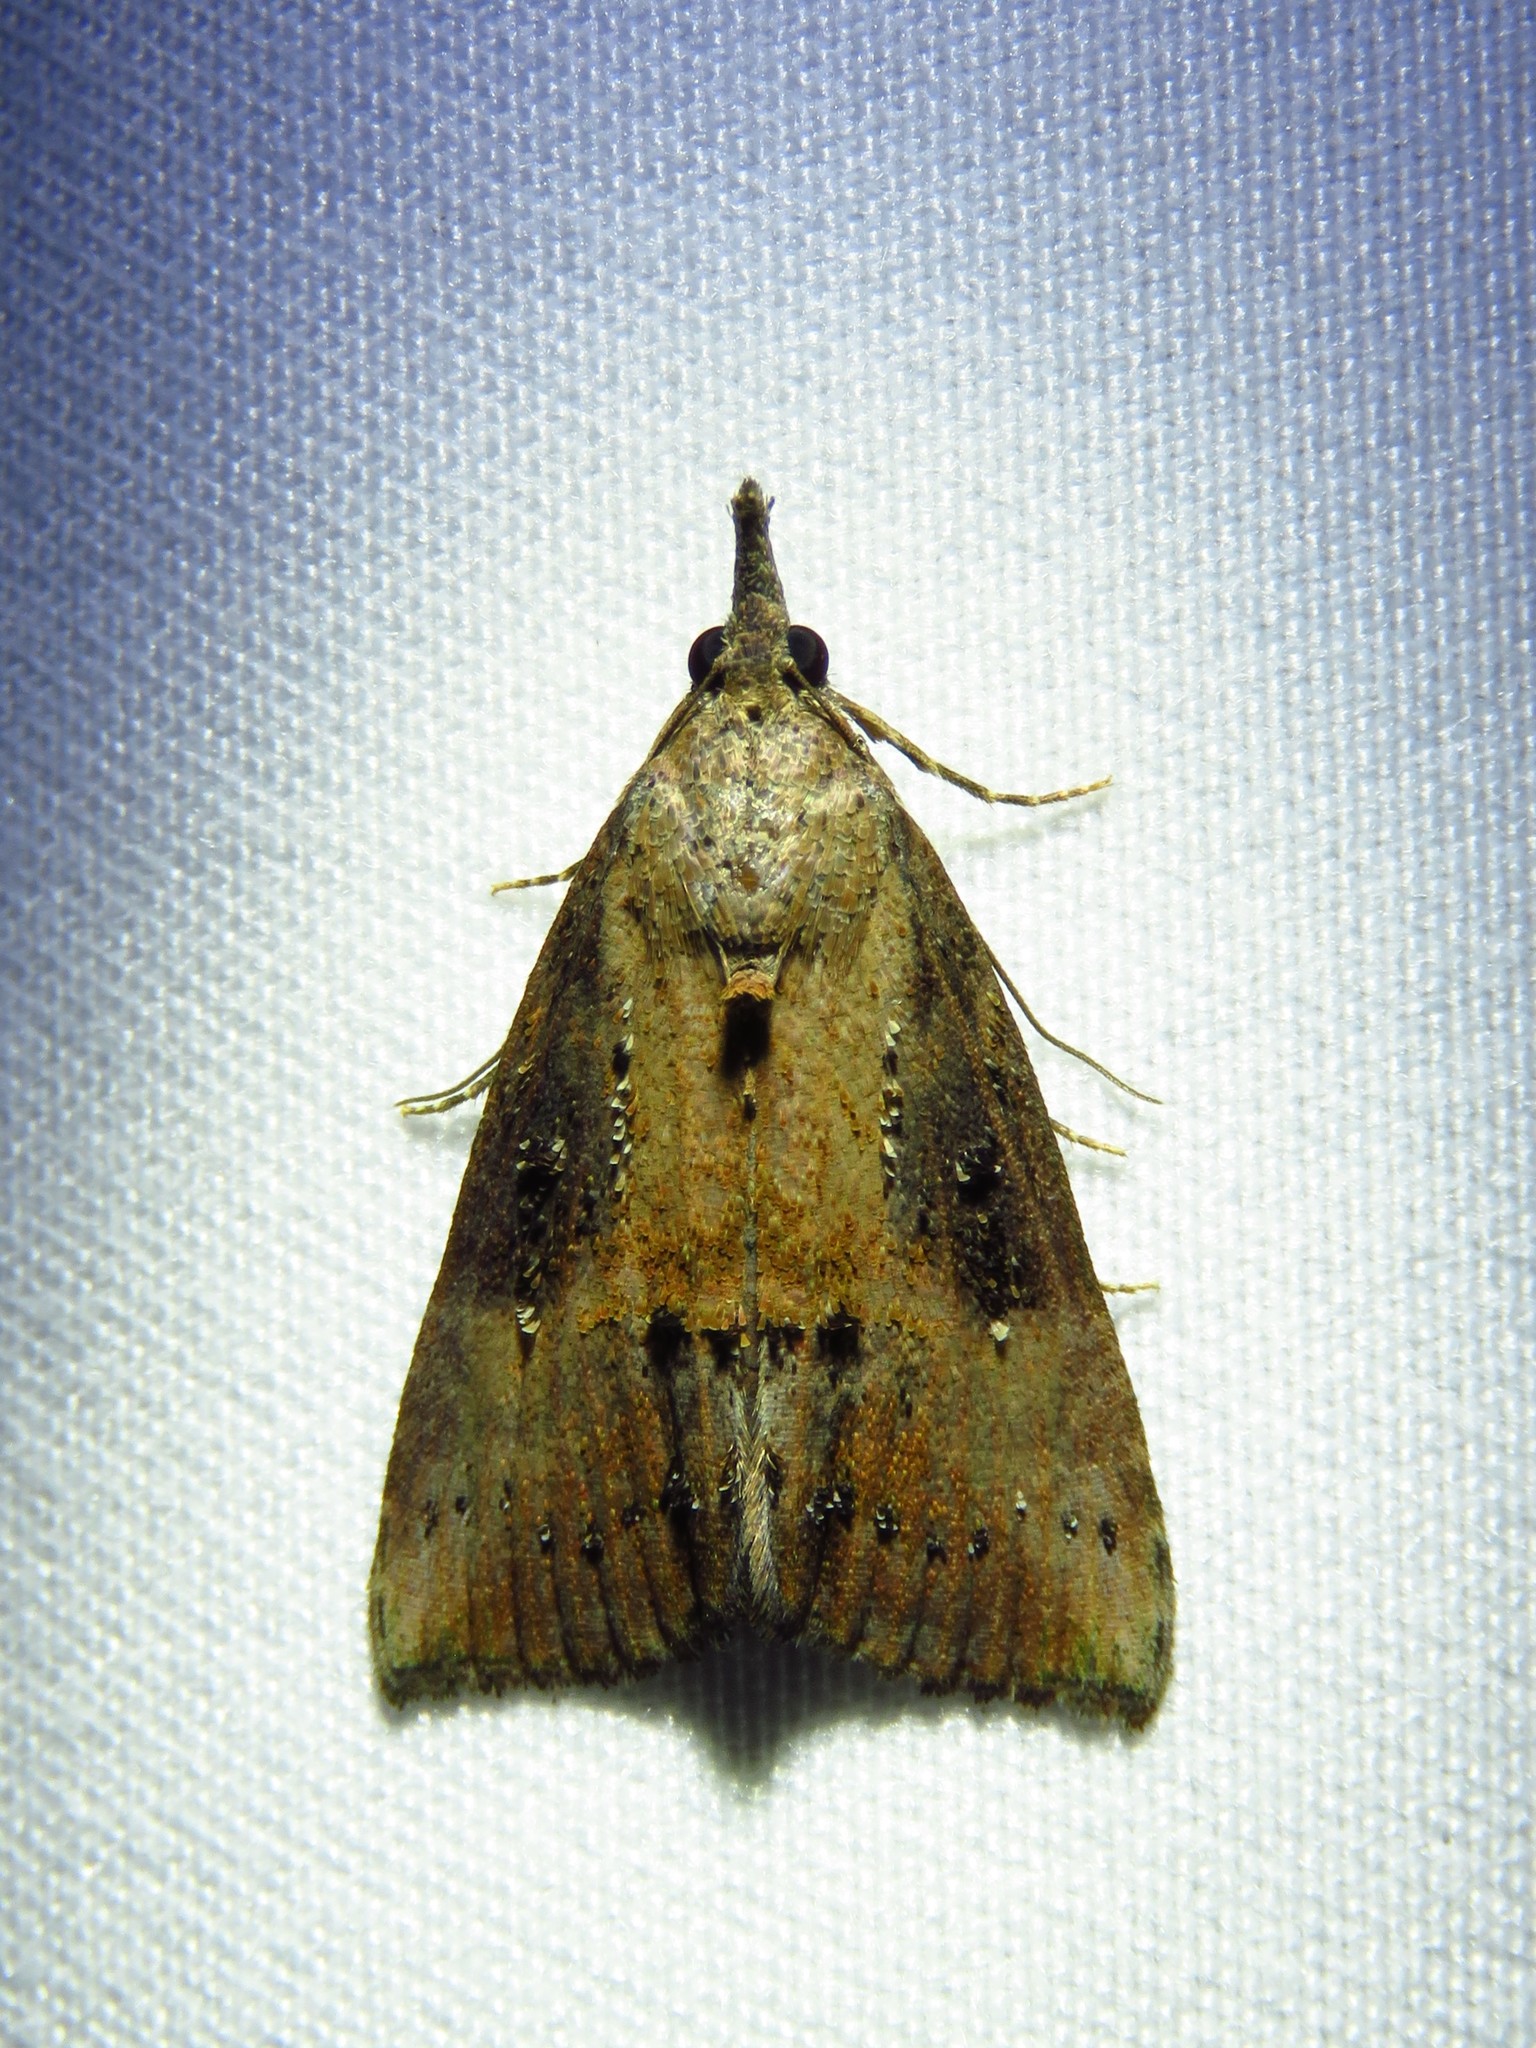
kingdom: Animalia
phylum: Arthropoda
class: Insecta
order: Lepidoptera
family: Erebidae
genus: Hypena
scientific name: Hypena scabra
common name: Green cloverworm
